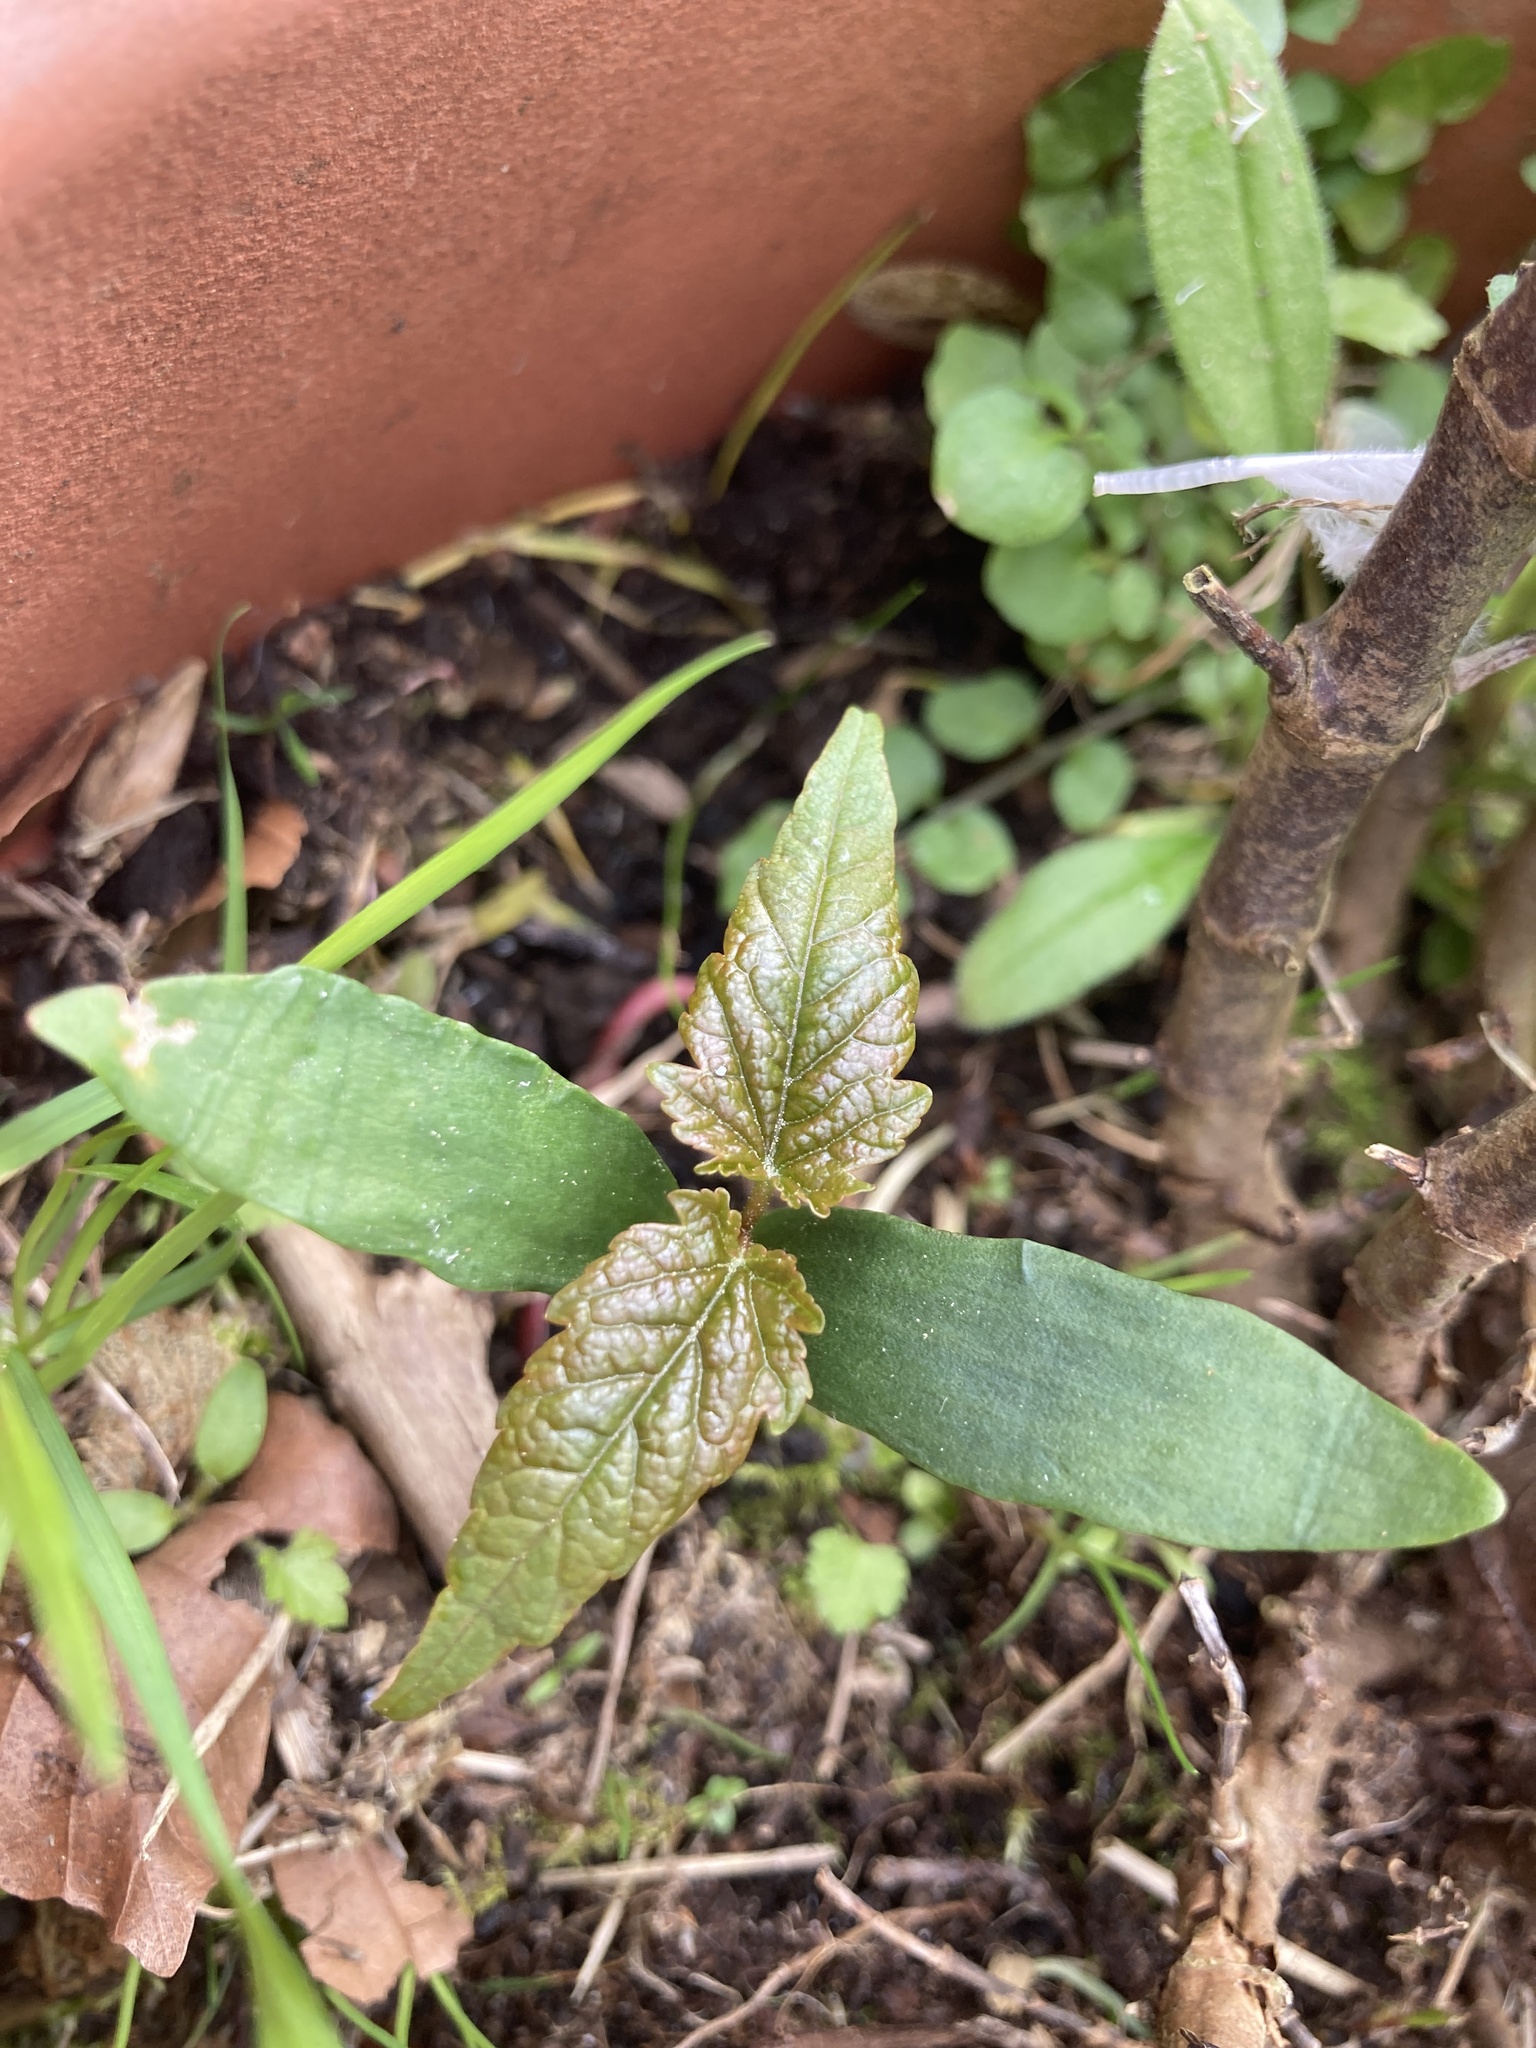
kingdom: Plantae
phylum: Tracheophyta
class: Magnoliopsida
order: Sapindales
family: Sapindaceae
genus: Acer
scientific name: Acer pseudoplatanus
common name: Sycamore
